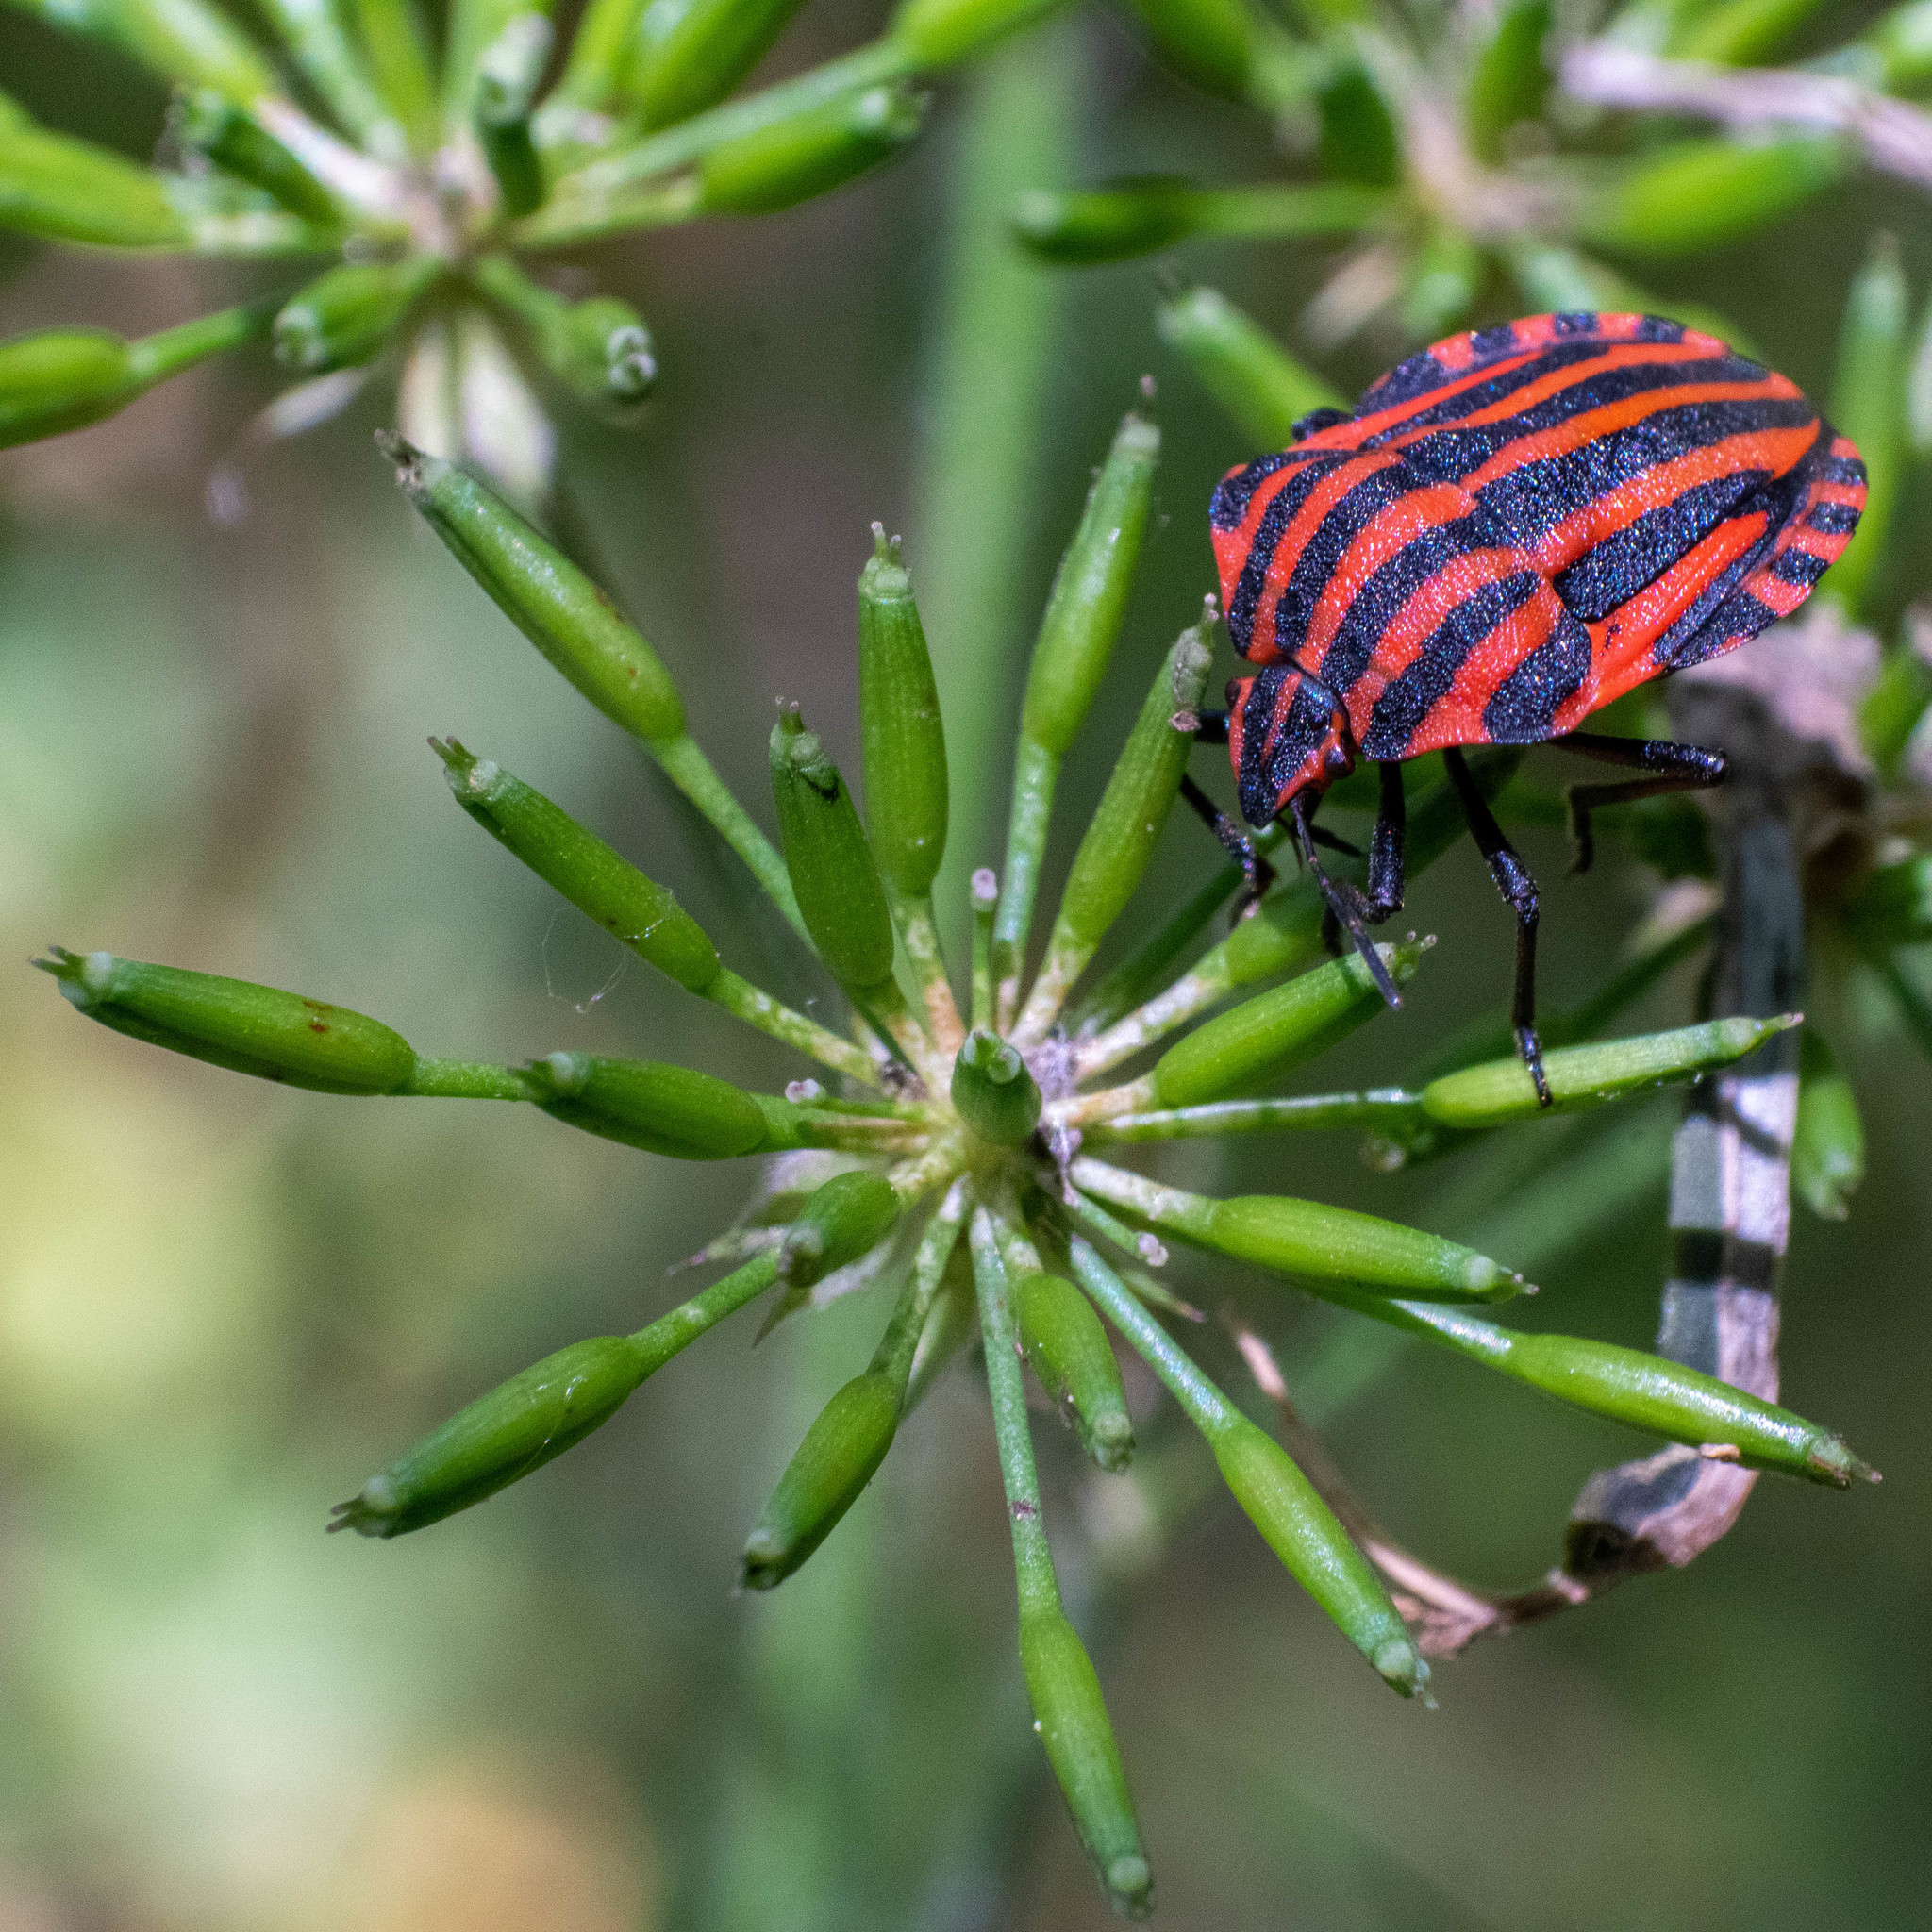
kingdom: Animalia
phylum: Arthropoda
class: Insecta
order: Hemiptera
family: Pentatomidae
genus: Graphosoma
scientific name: Graphosoma italicum
